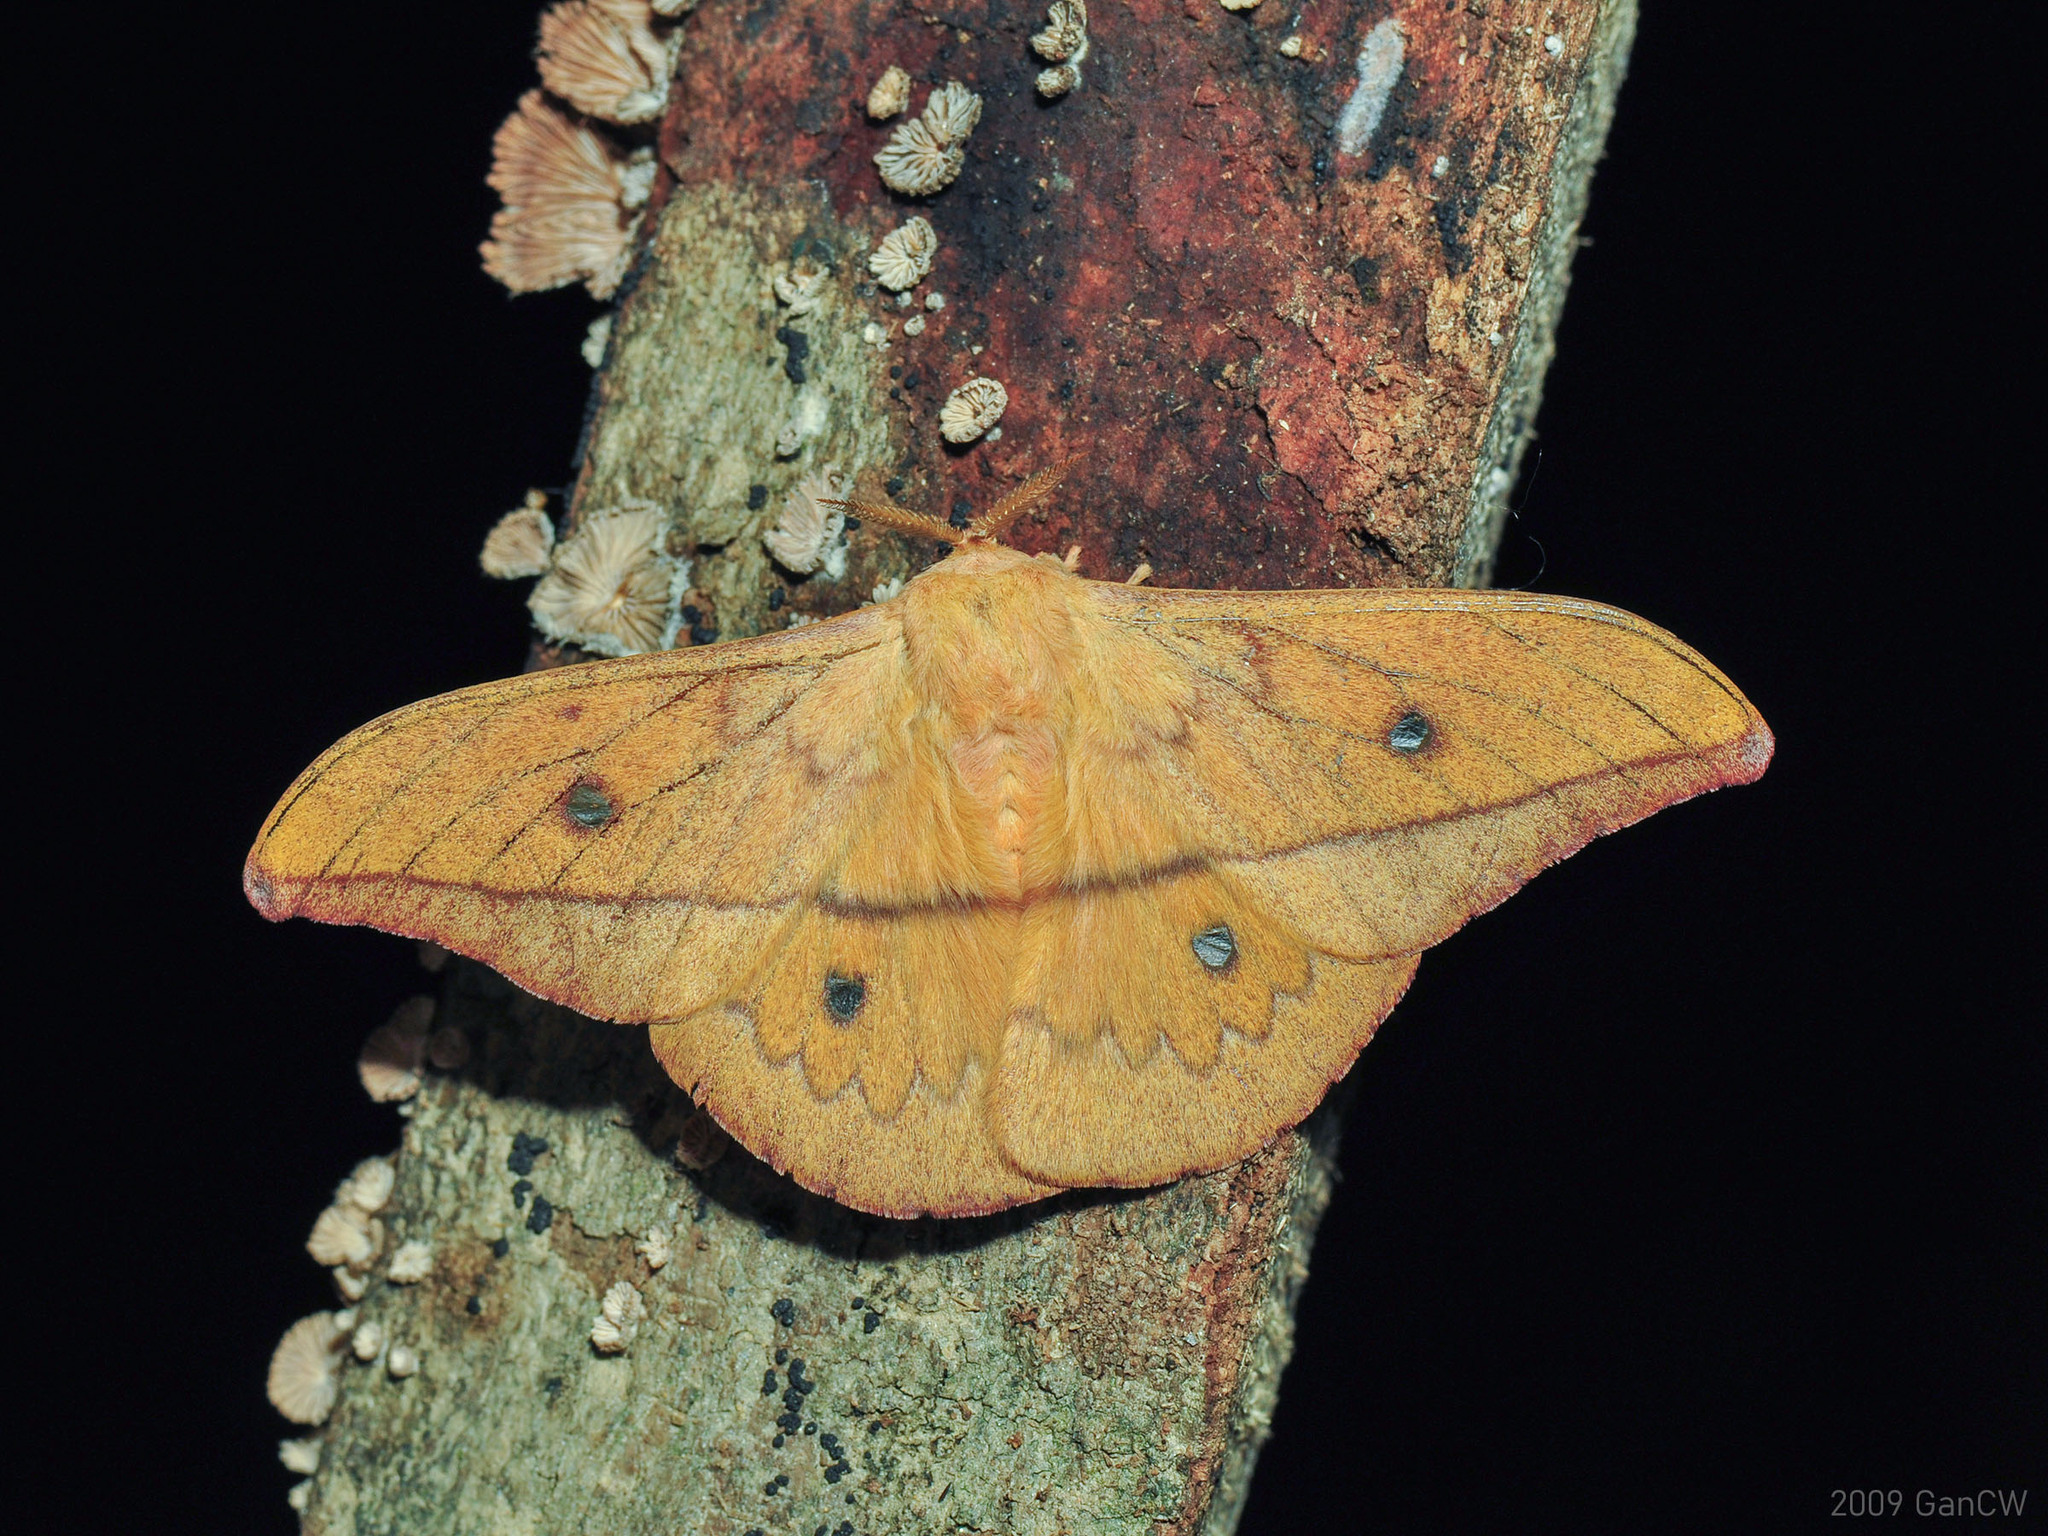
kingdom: Animalia
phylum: Arthropoda
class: Insecta
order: Lepidoptera
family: Saturniidae
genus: Cricula
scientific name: Cricula cameronensis
